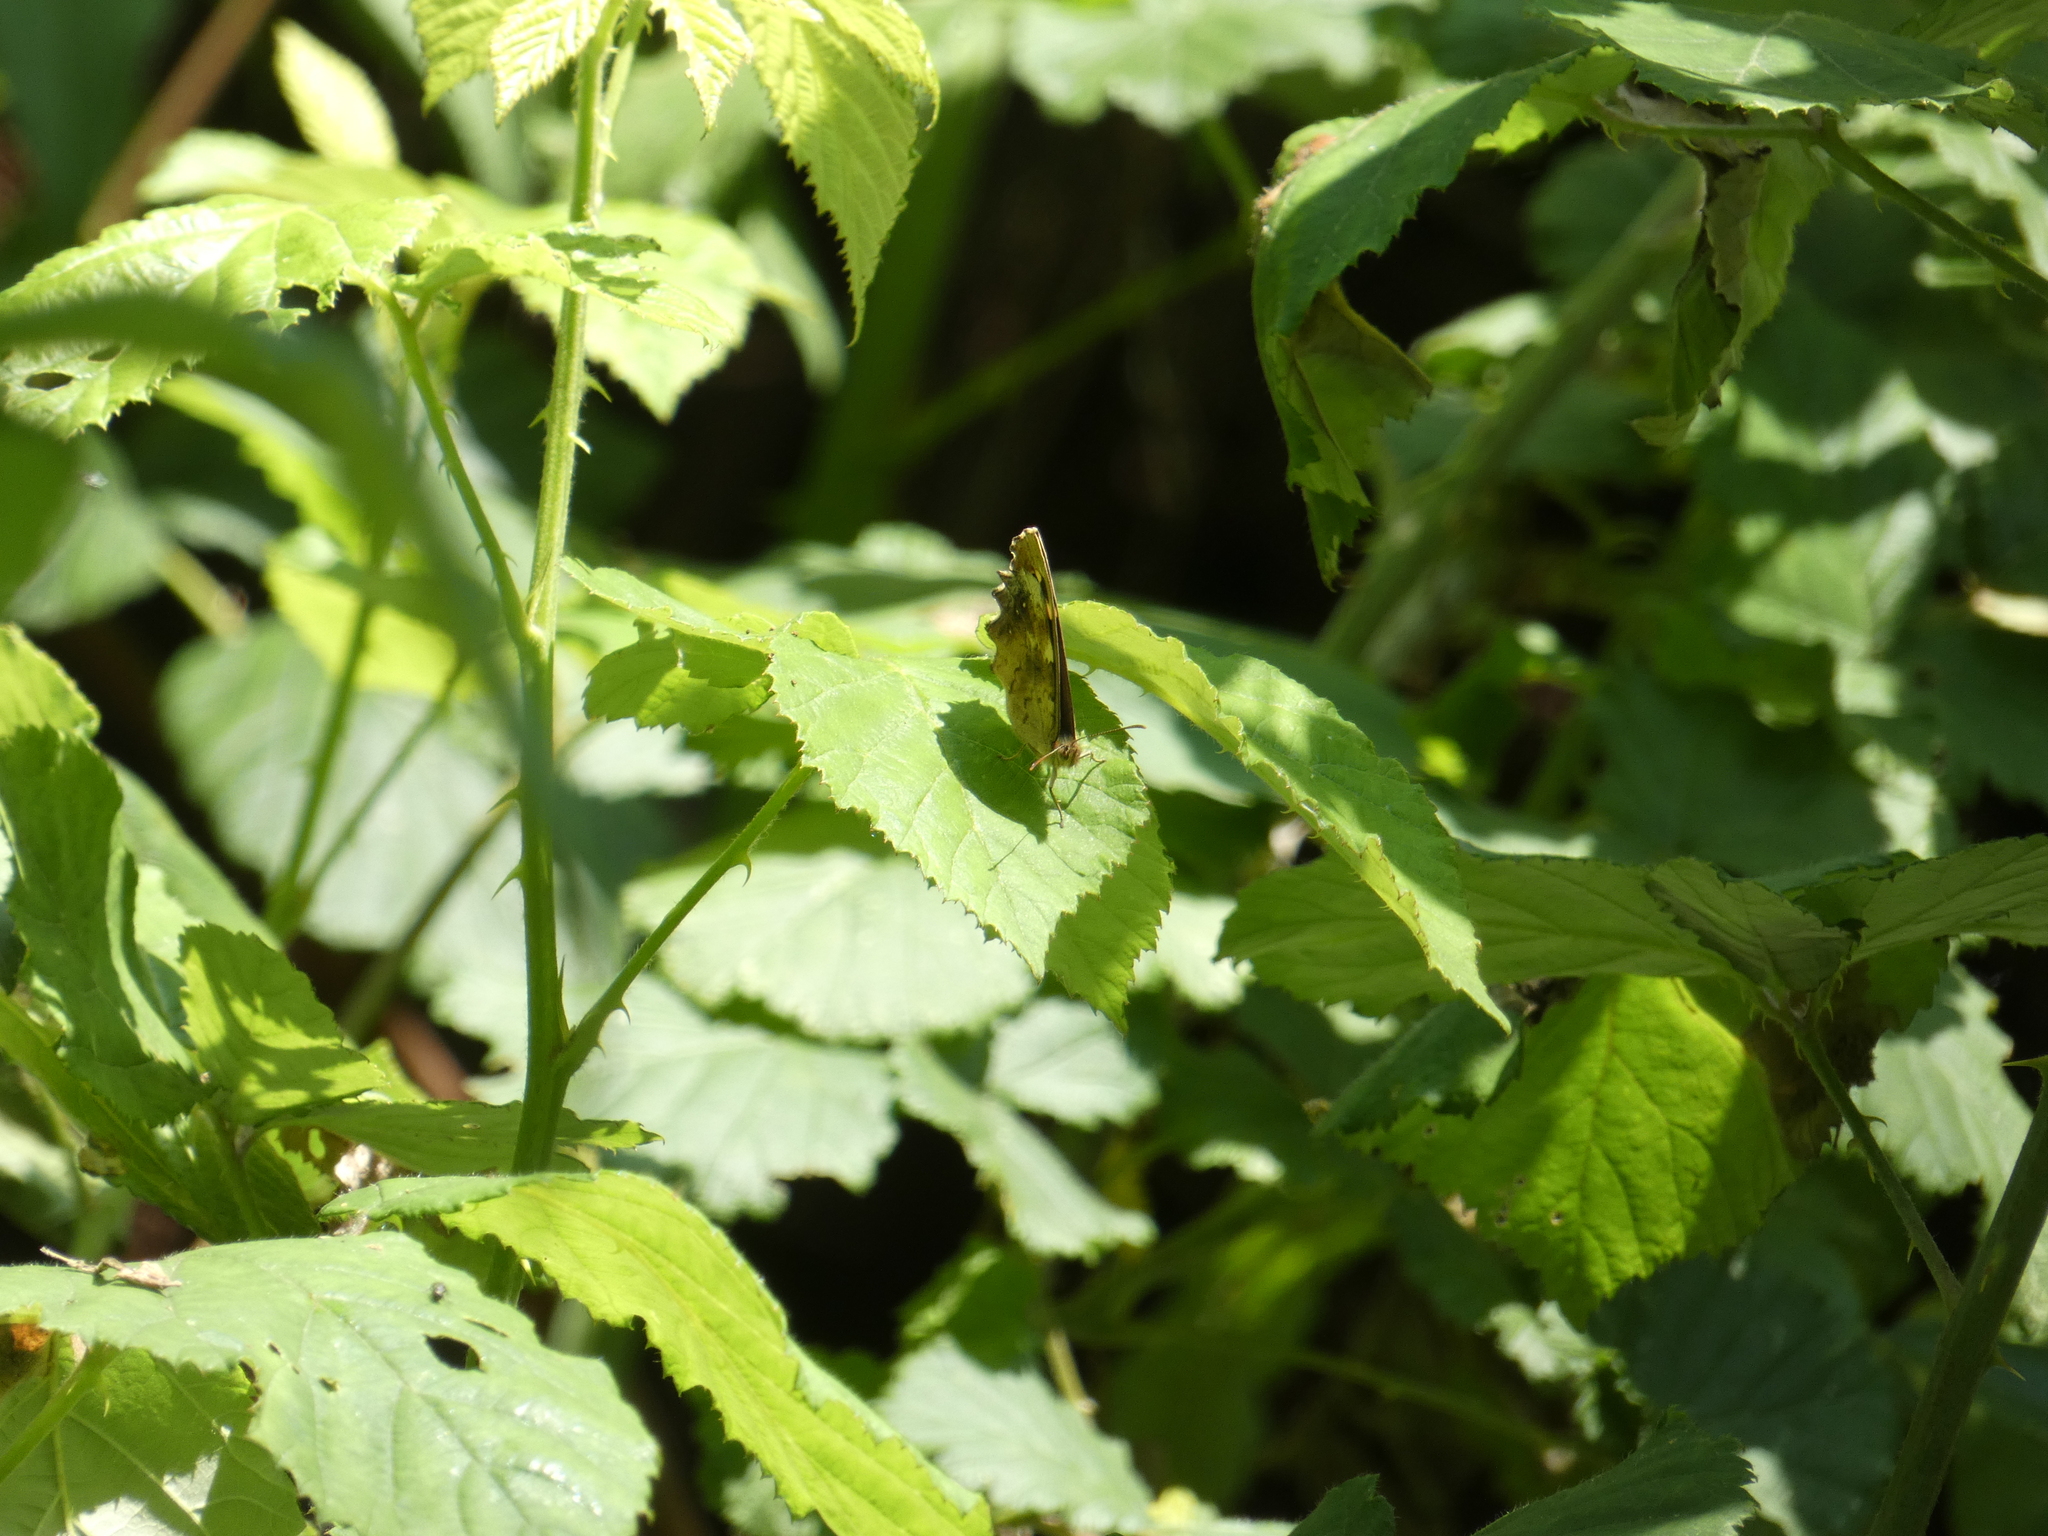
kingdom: Animalia
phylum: Arthropoda
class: Insecta
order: Lepidoptera
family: Nymphalidae
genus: Pararge
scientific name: Pararge aegeria
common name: Speckled wood
